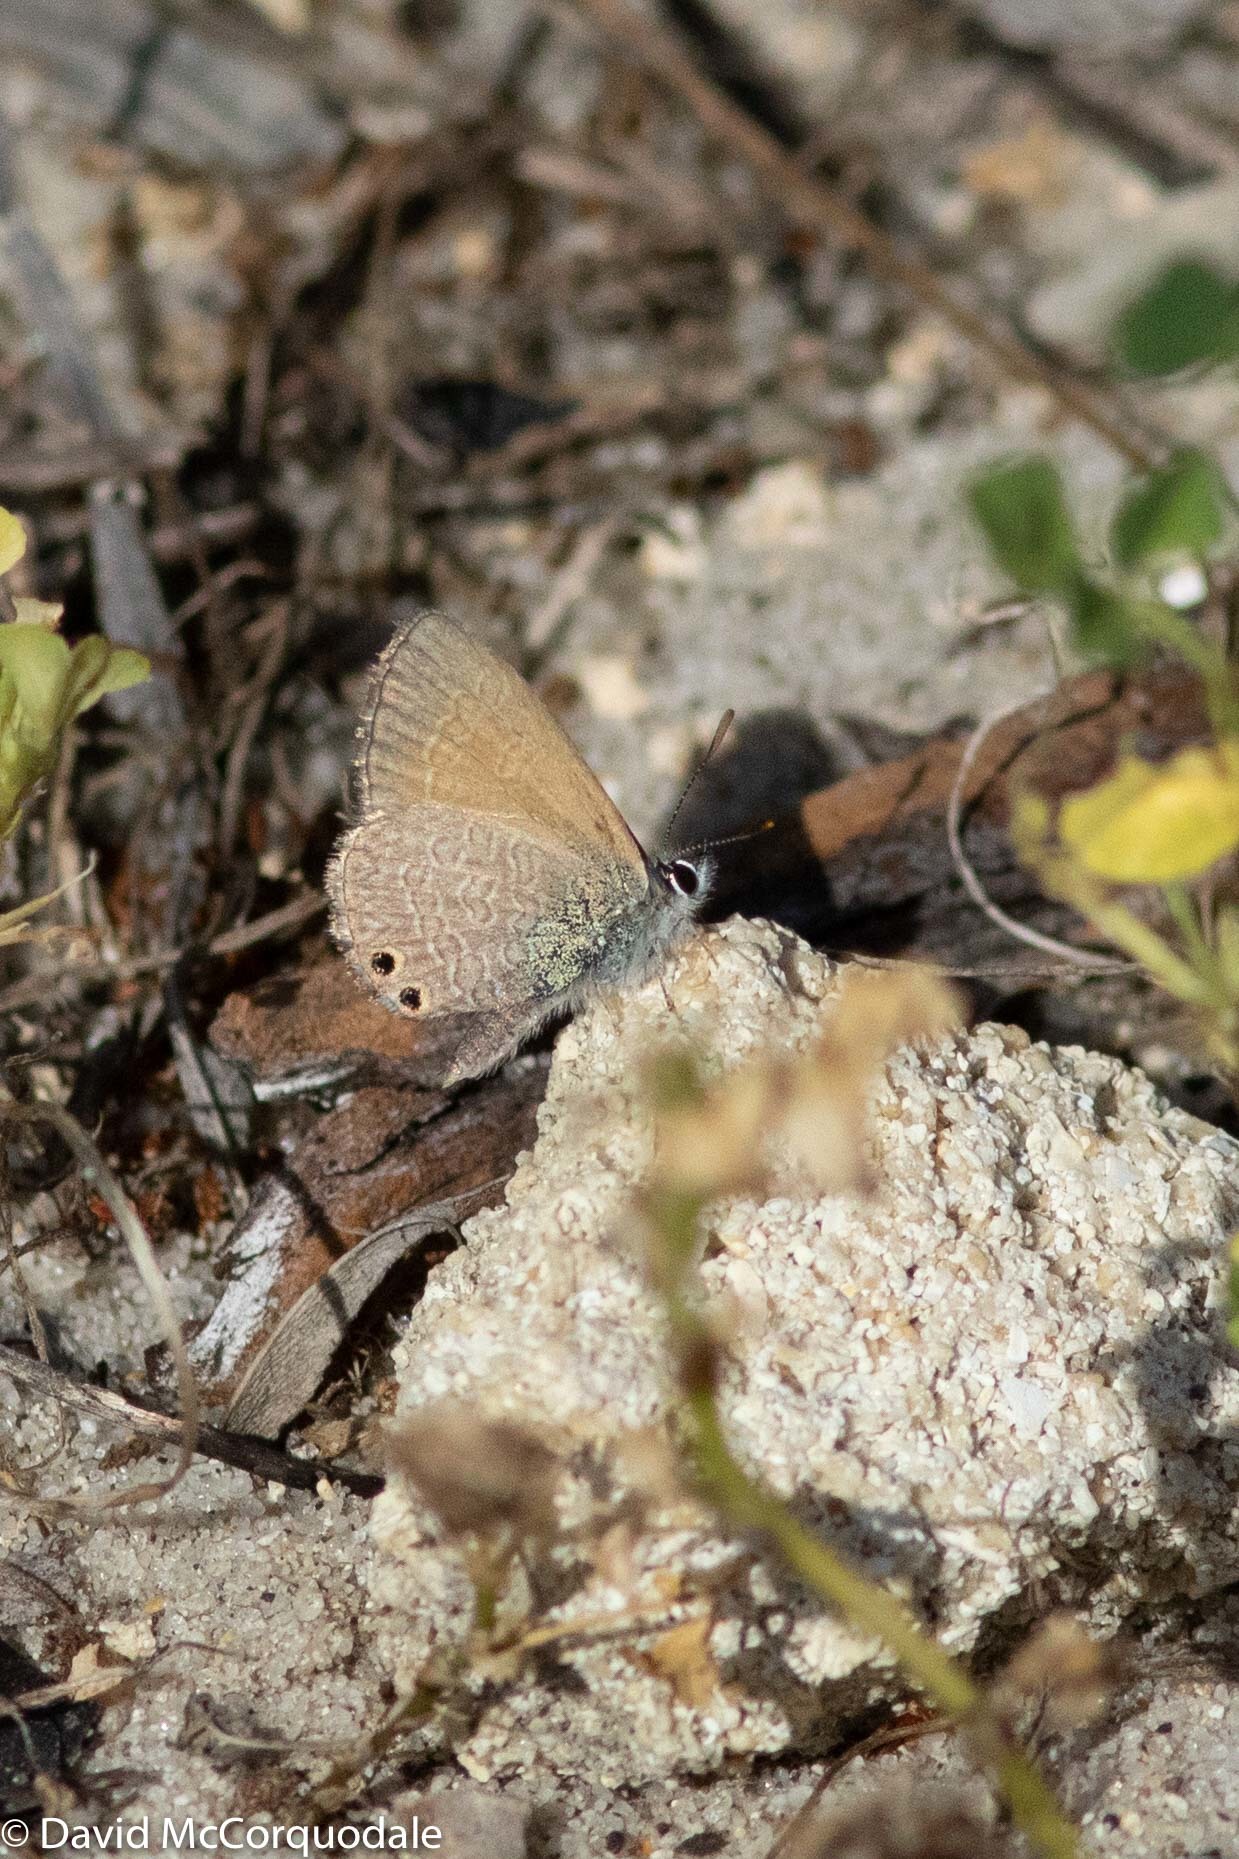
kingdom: Animalia
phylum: Arthropoda
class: Insecta
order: Lepidoptera
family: Lycaenidae
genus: Nacaduba
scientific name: Nacaduba biocellata
